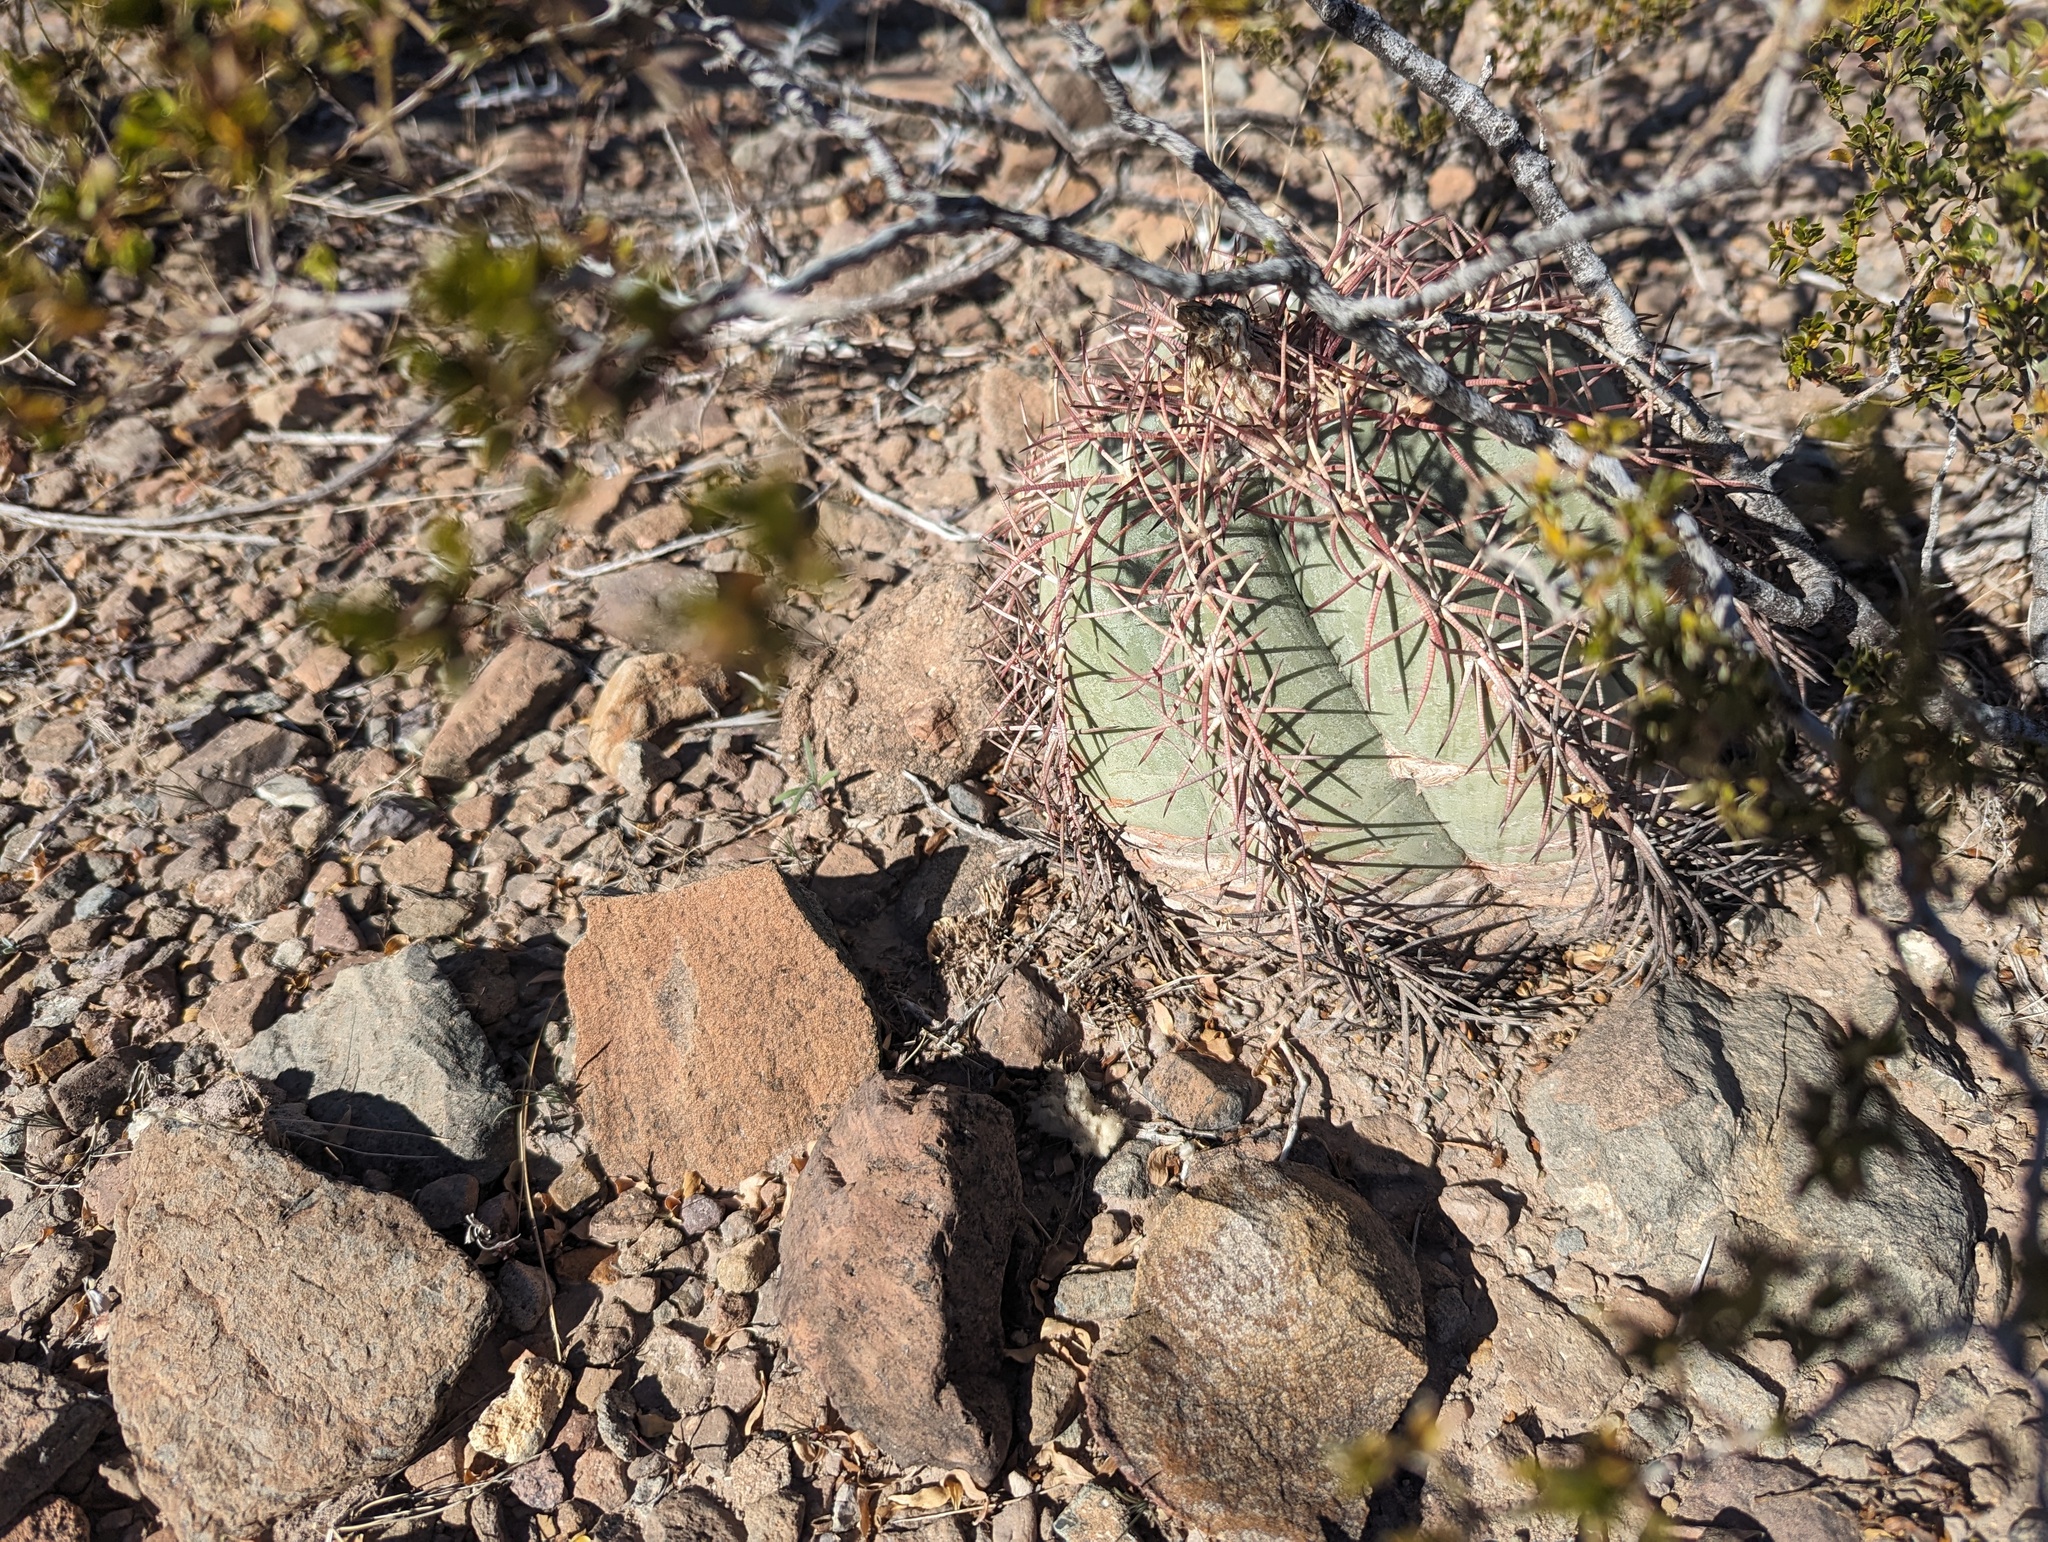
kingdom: Plantae
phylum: Tracheophyta
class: Magnoliopsida
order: Caryophyllales
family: Cactaceae
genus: Echinocactus
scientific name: Echinocactus horizonthalonius
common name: Devilshead
